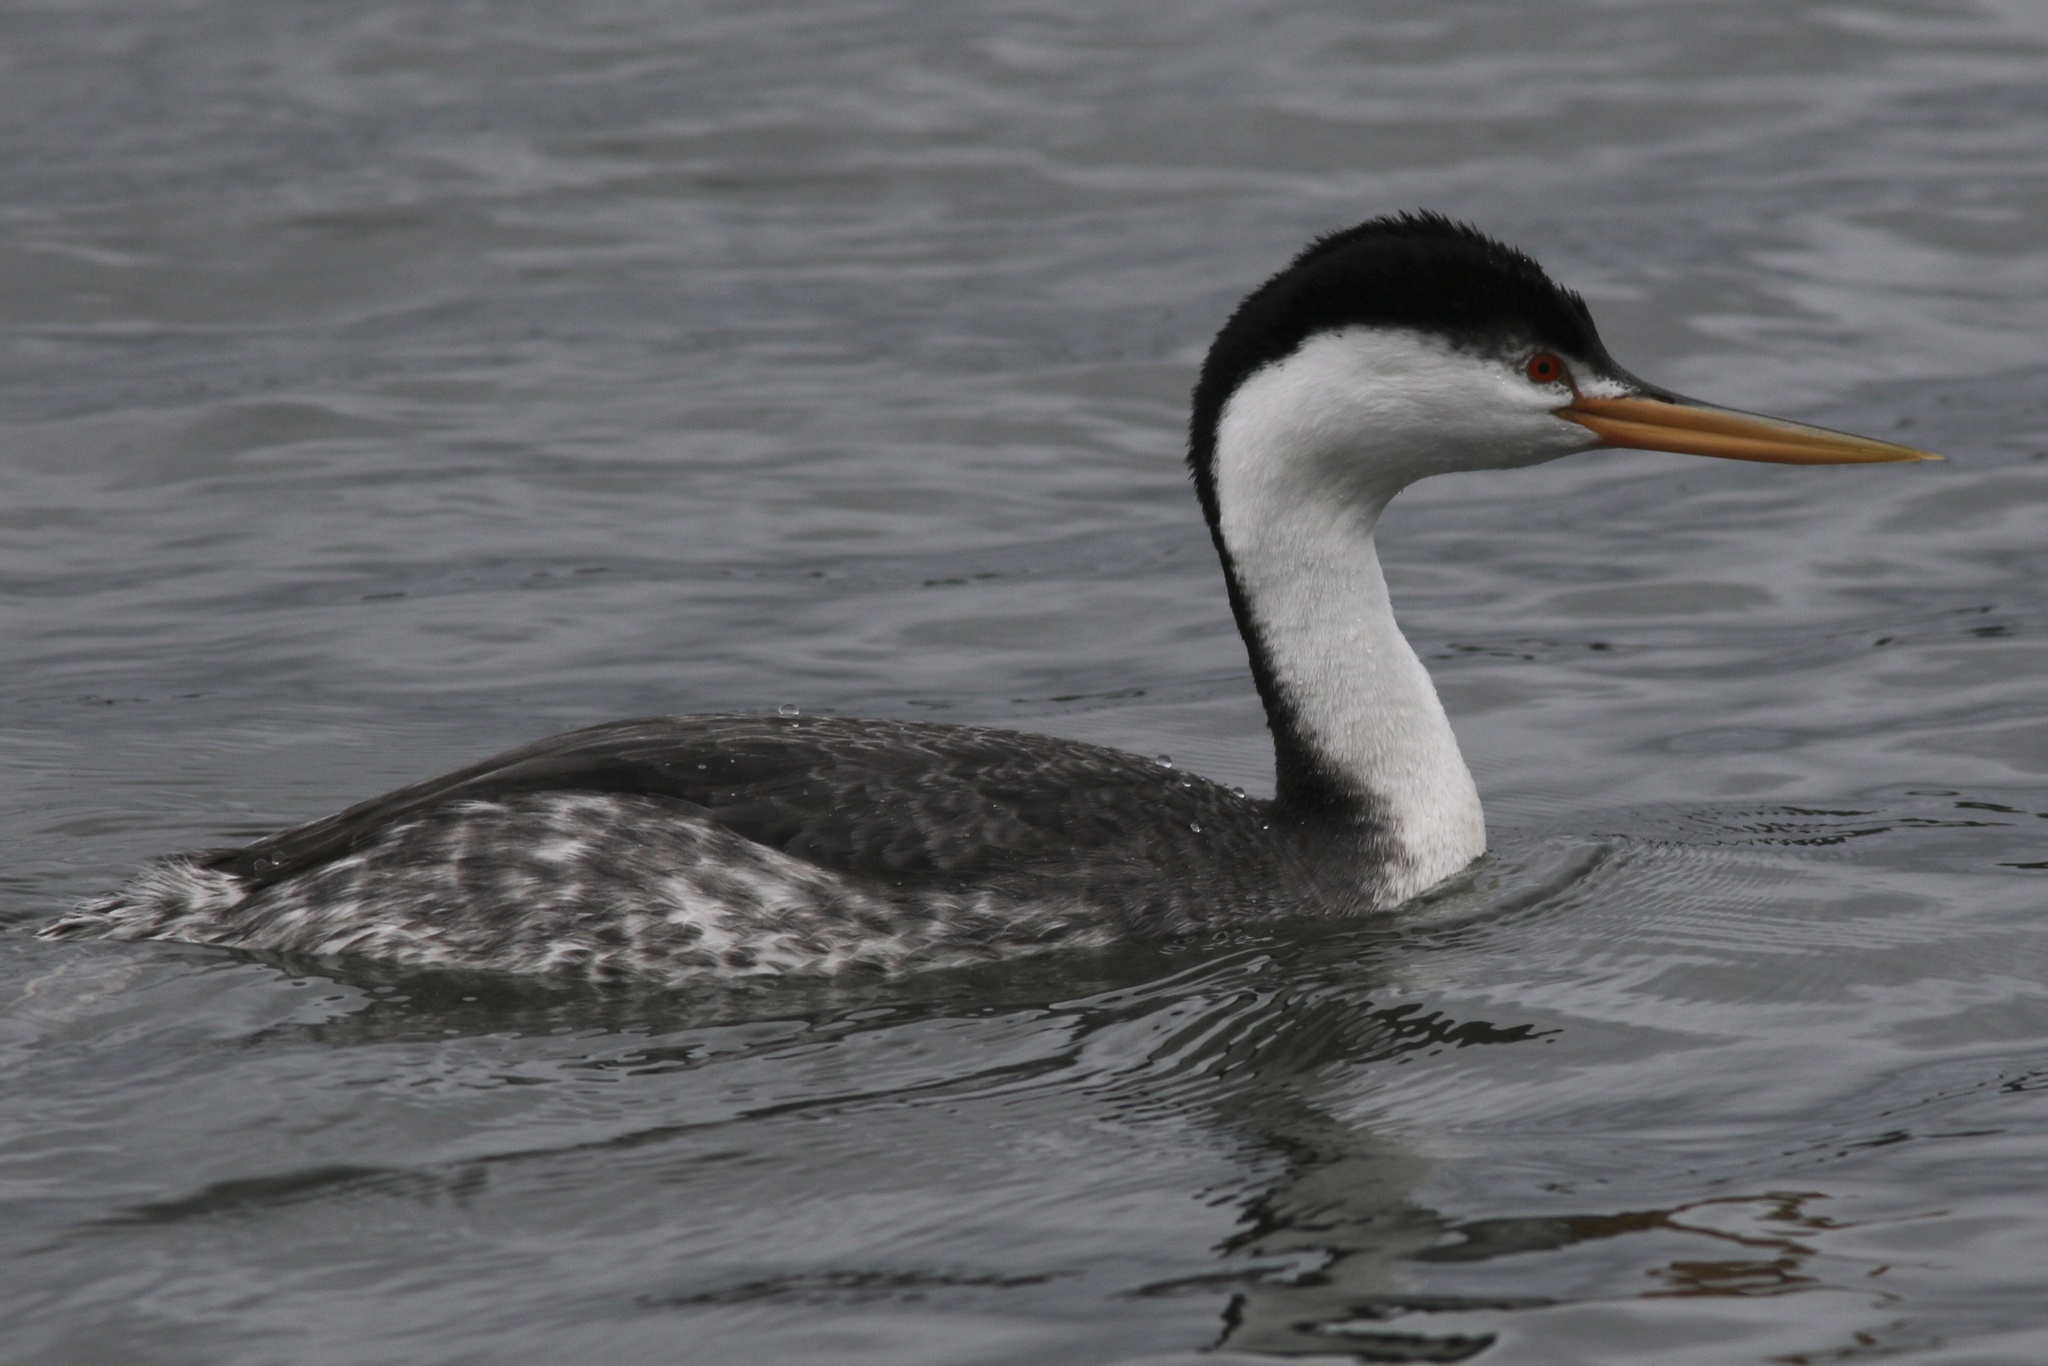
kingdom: Animalia
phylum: Chordata
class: Aves
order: Podicipediformes
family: Podicipedidae
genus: Aechmophorus
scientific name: Aechmophorus
